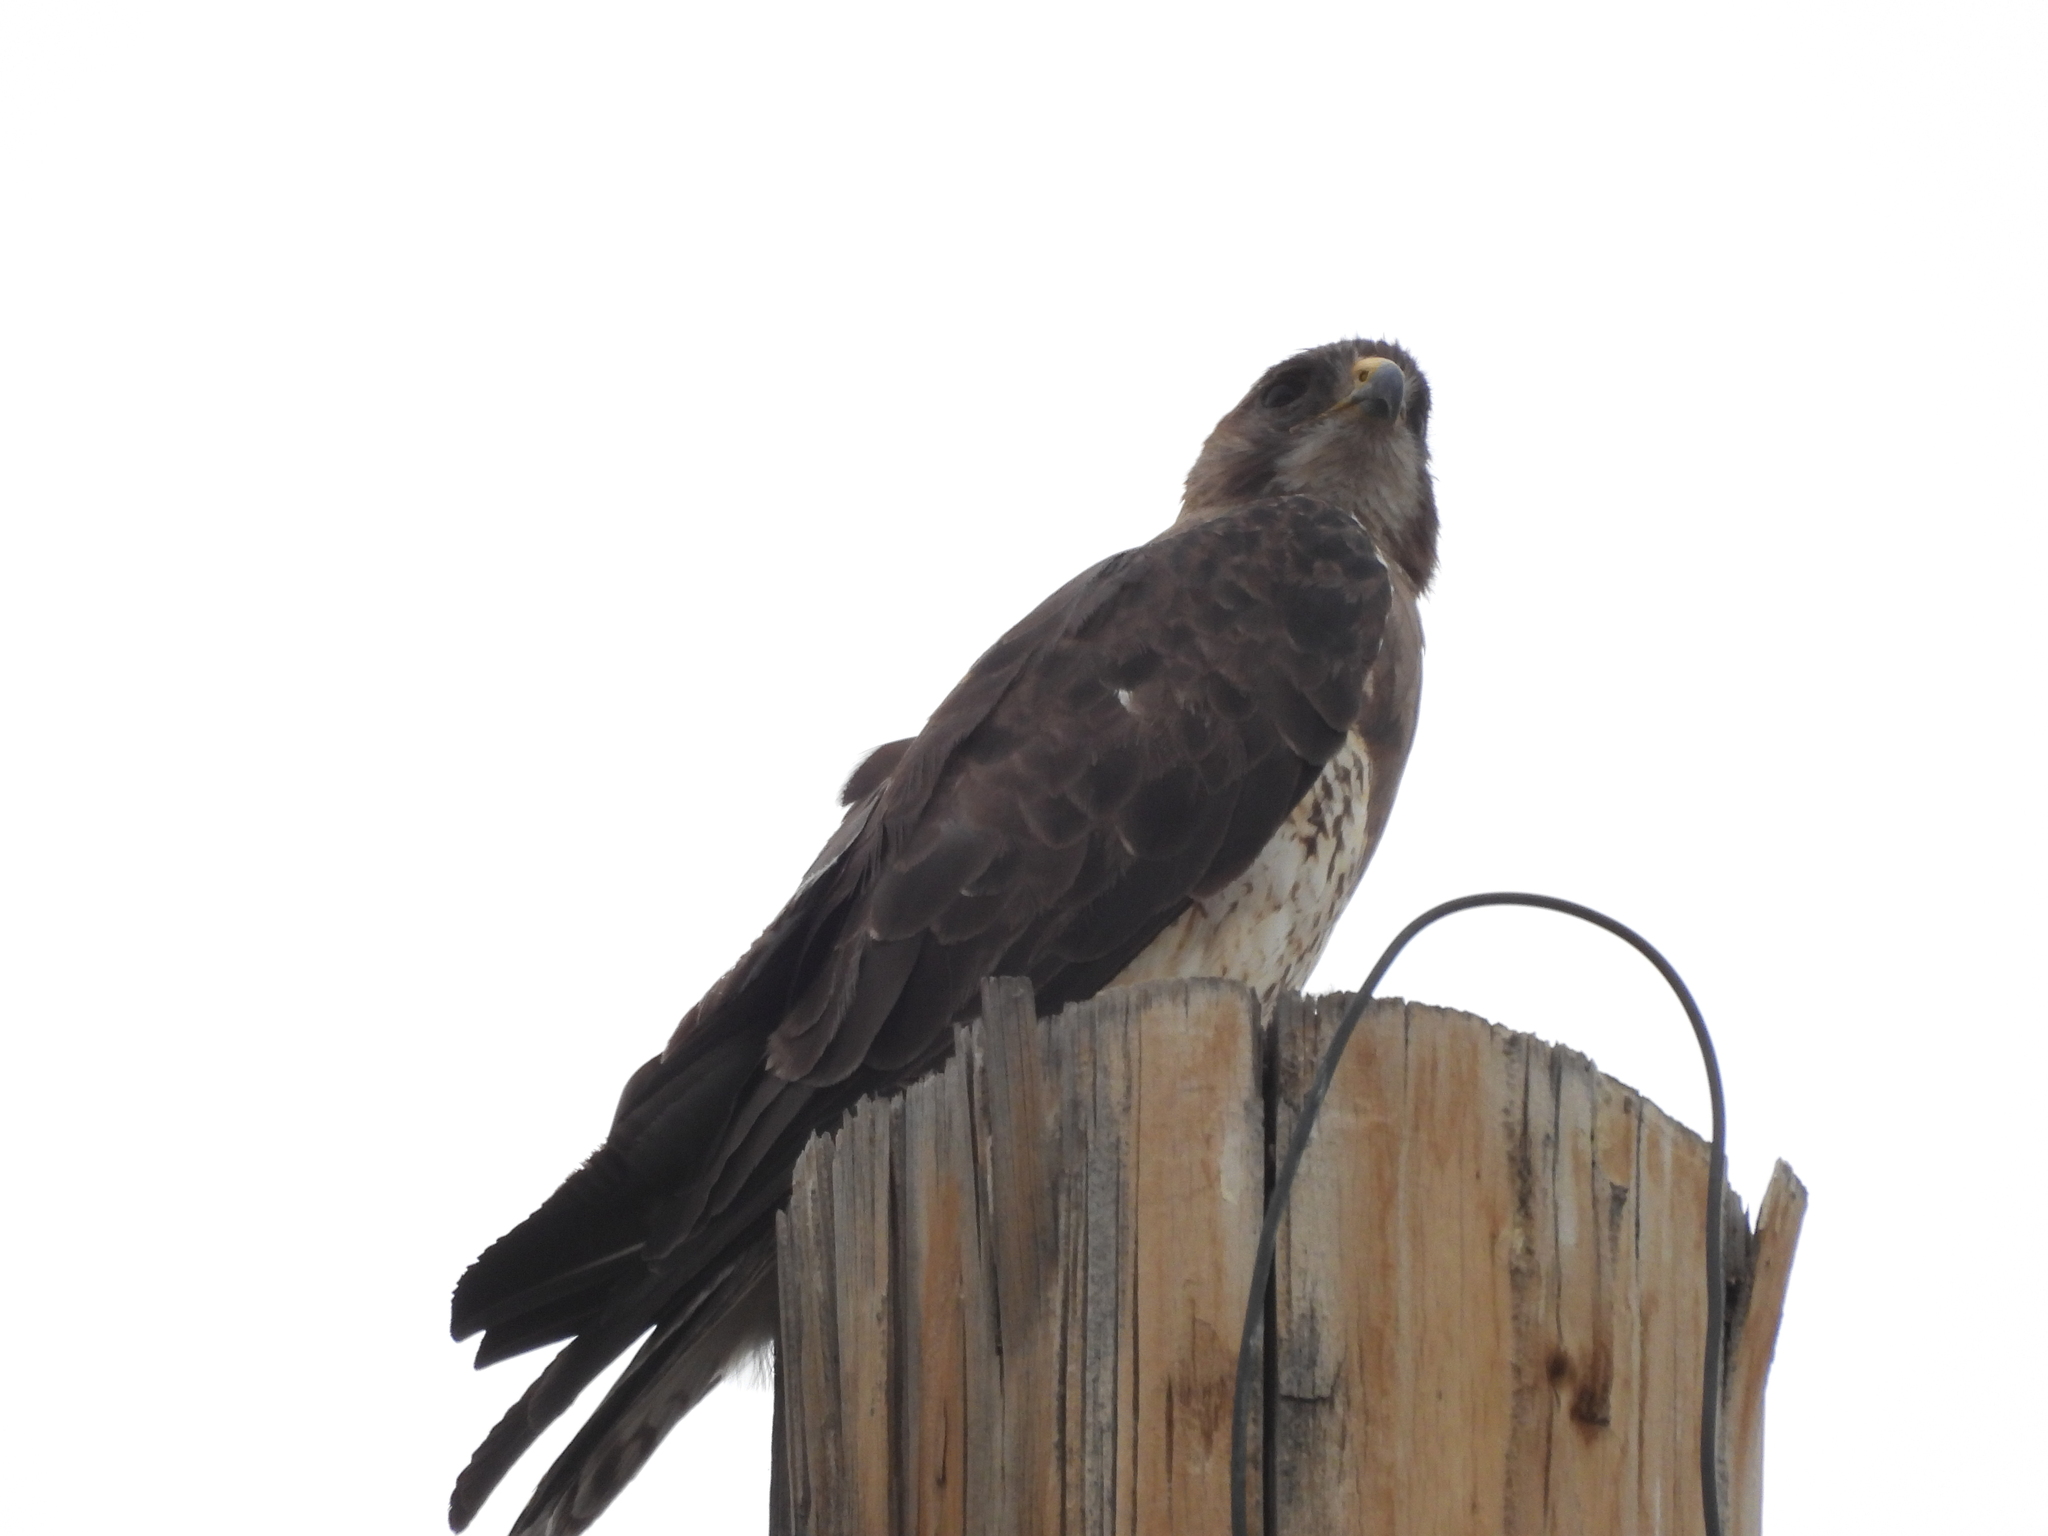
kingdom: Animalia
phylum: Chordata
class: Aves
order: Accipitriformes
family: Accipitridae
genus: Buteo
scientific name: Buteo swainsoni
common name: Swainson's hawk
